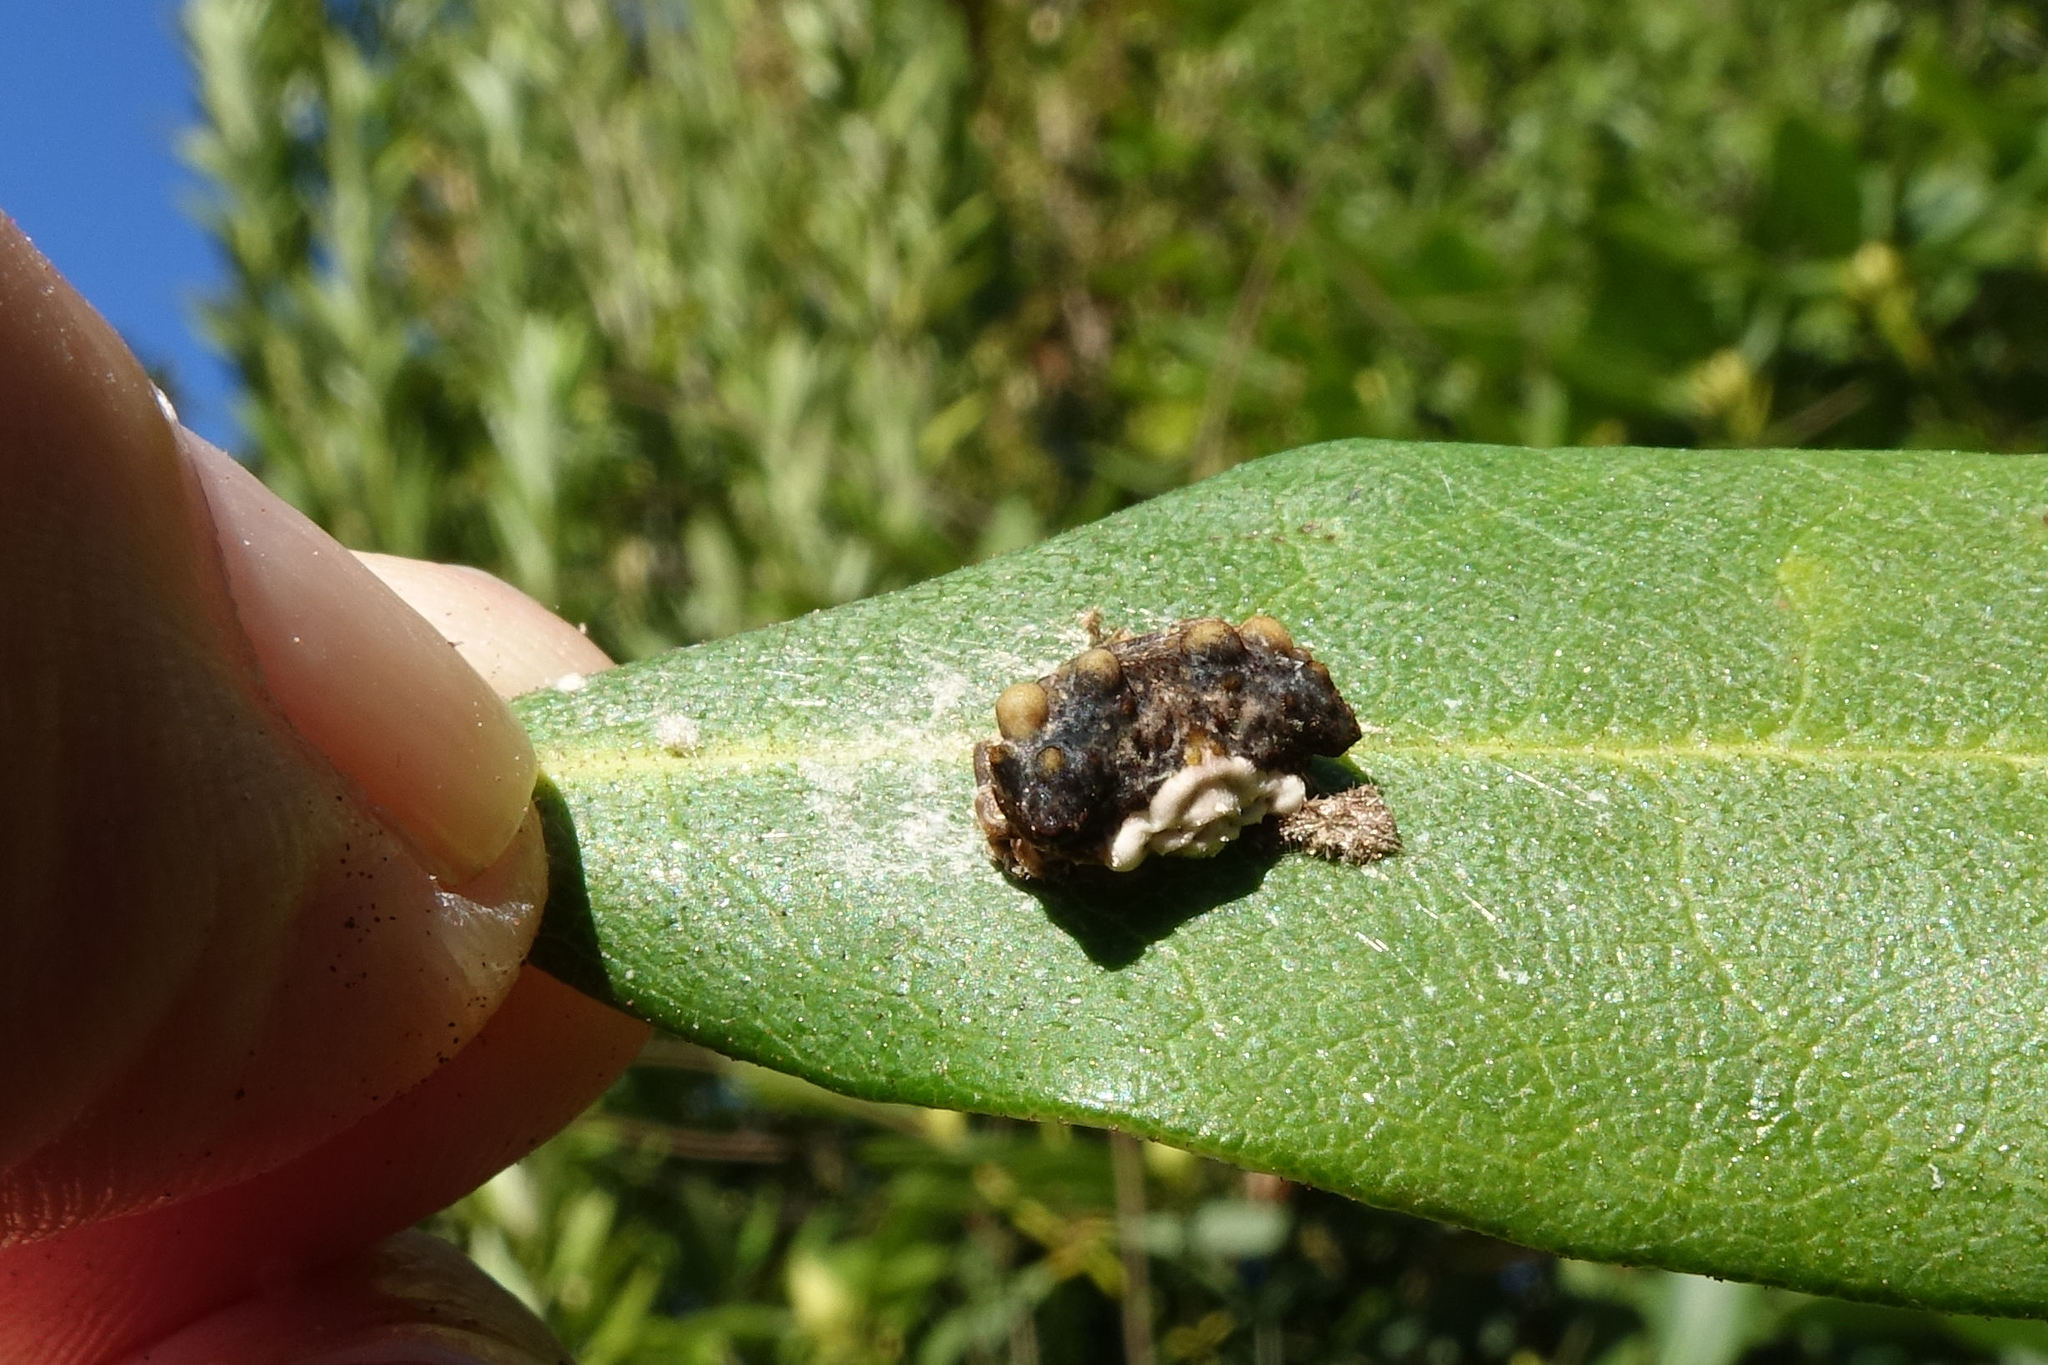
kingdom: Animalia
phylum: Arthropoda
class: Arachnida
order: Araneae
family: Araneidae
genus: Celaenia
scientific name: Celaenia tuberosa
